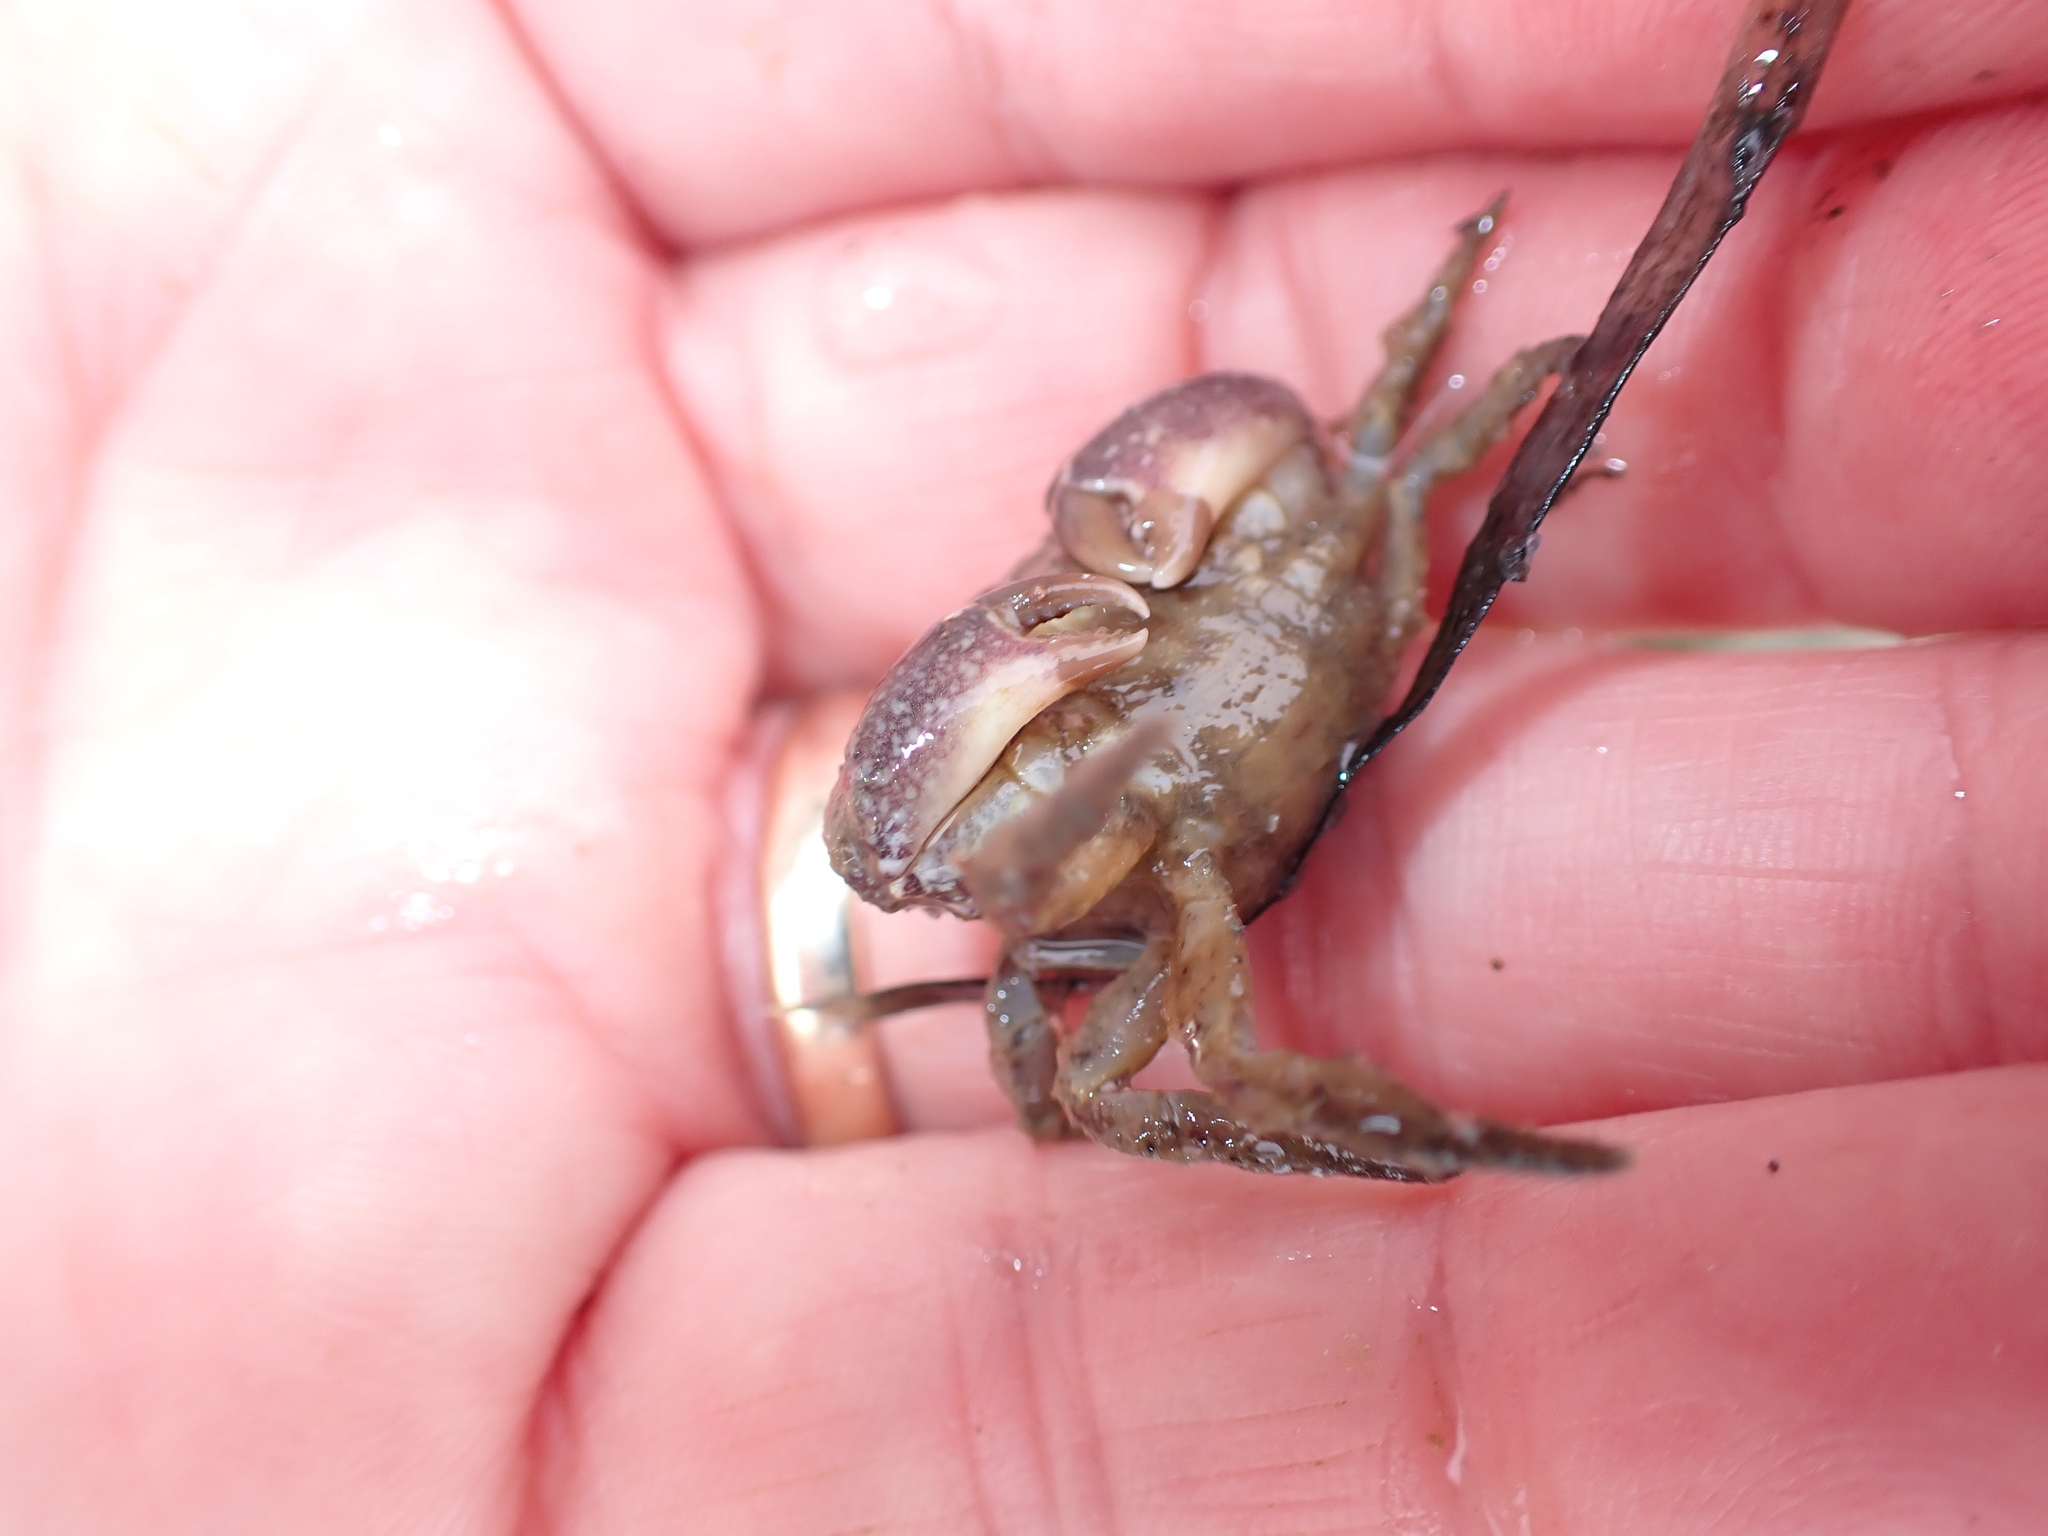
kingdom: Animalia
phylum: Arthropoda
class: Malacostraca
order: Decapoda
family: Pilumnidae
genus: Pilumnopeus
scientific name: Pilumnopeus serratifrons
